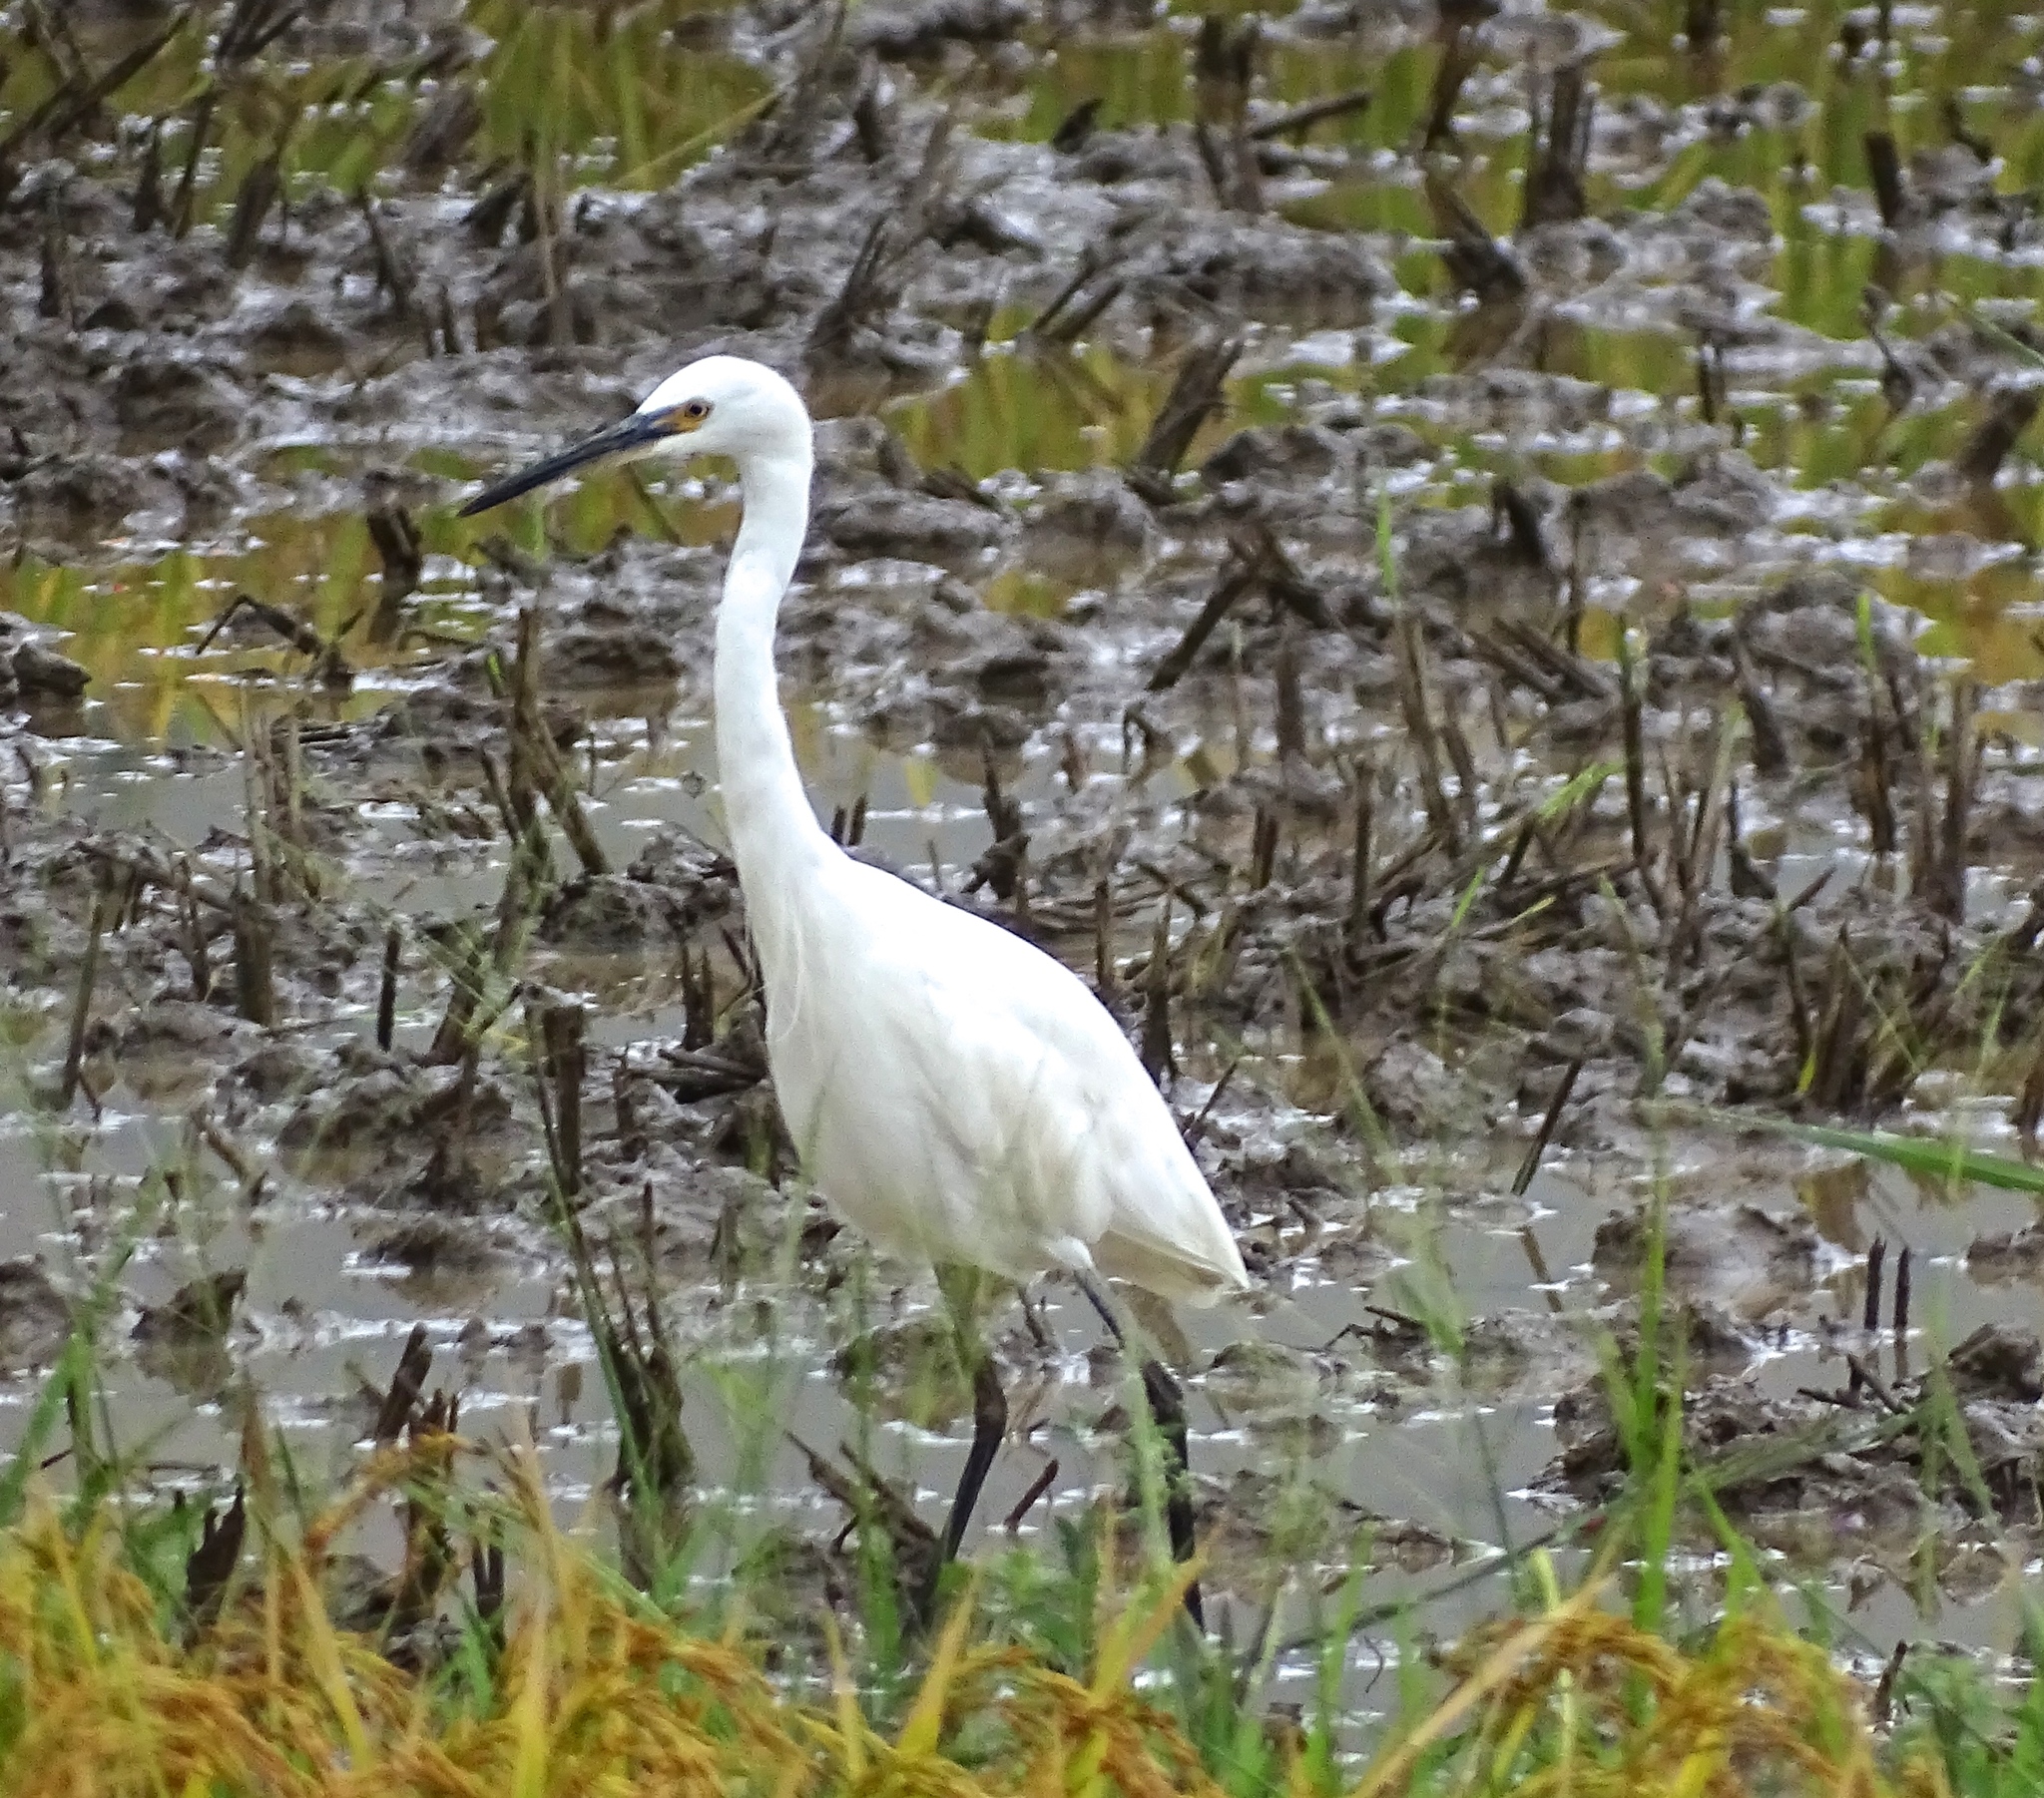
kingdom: Animalia
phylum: Chordata
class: Aves
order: Pelecaniformes
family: Ardeidae
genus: Egretta
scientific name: Egretta garzetta
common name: Little egret
